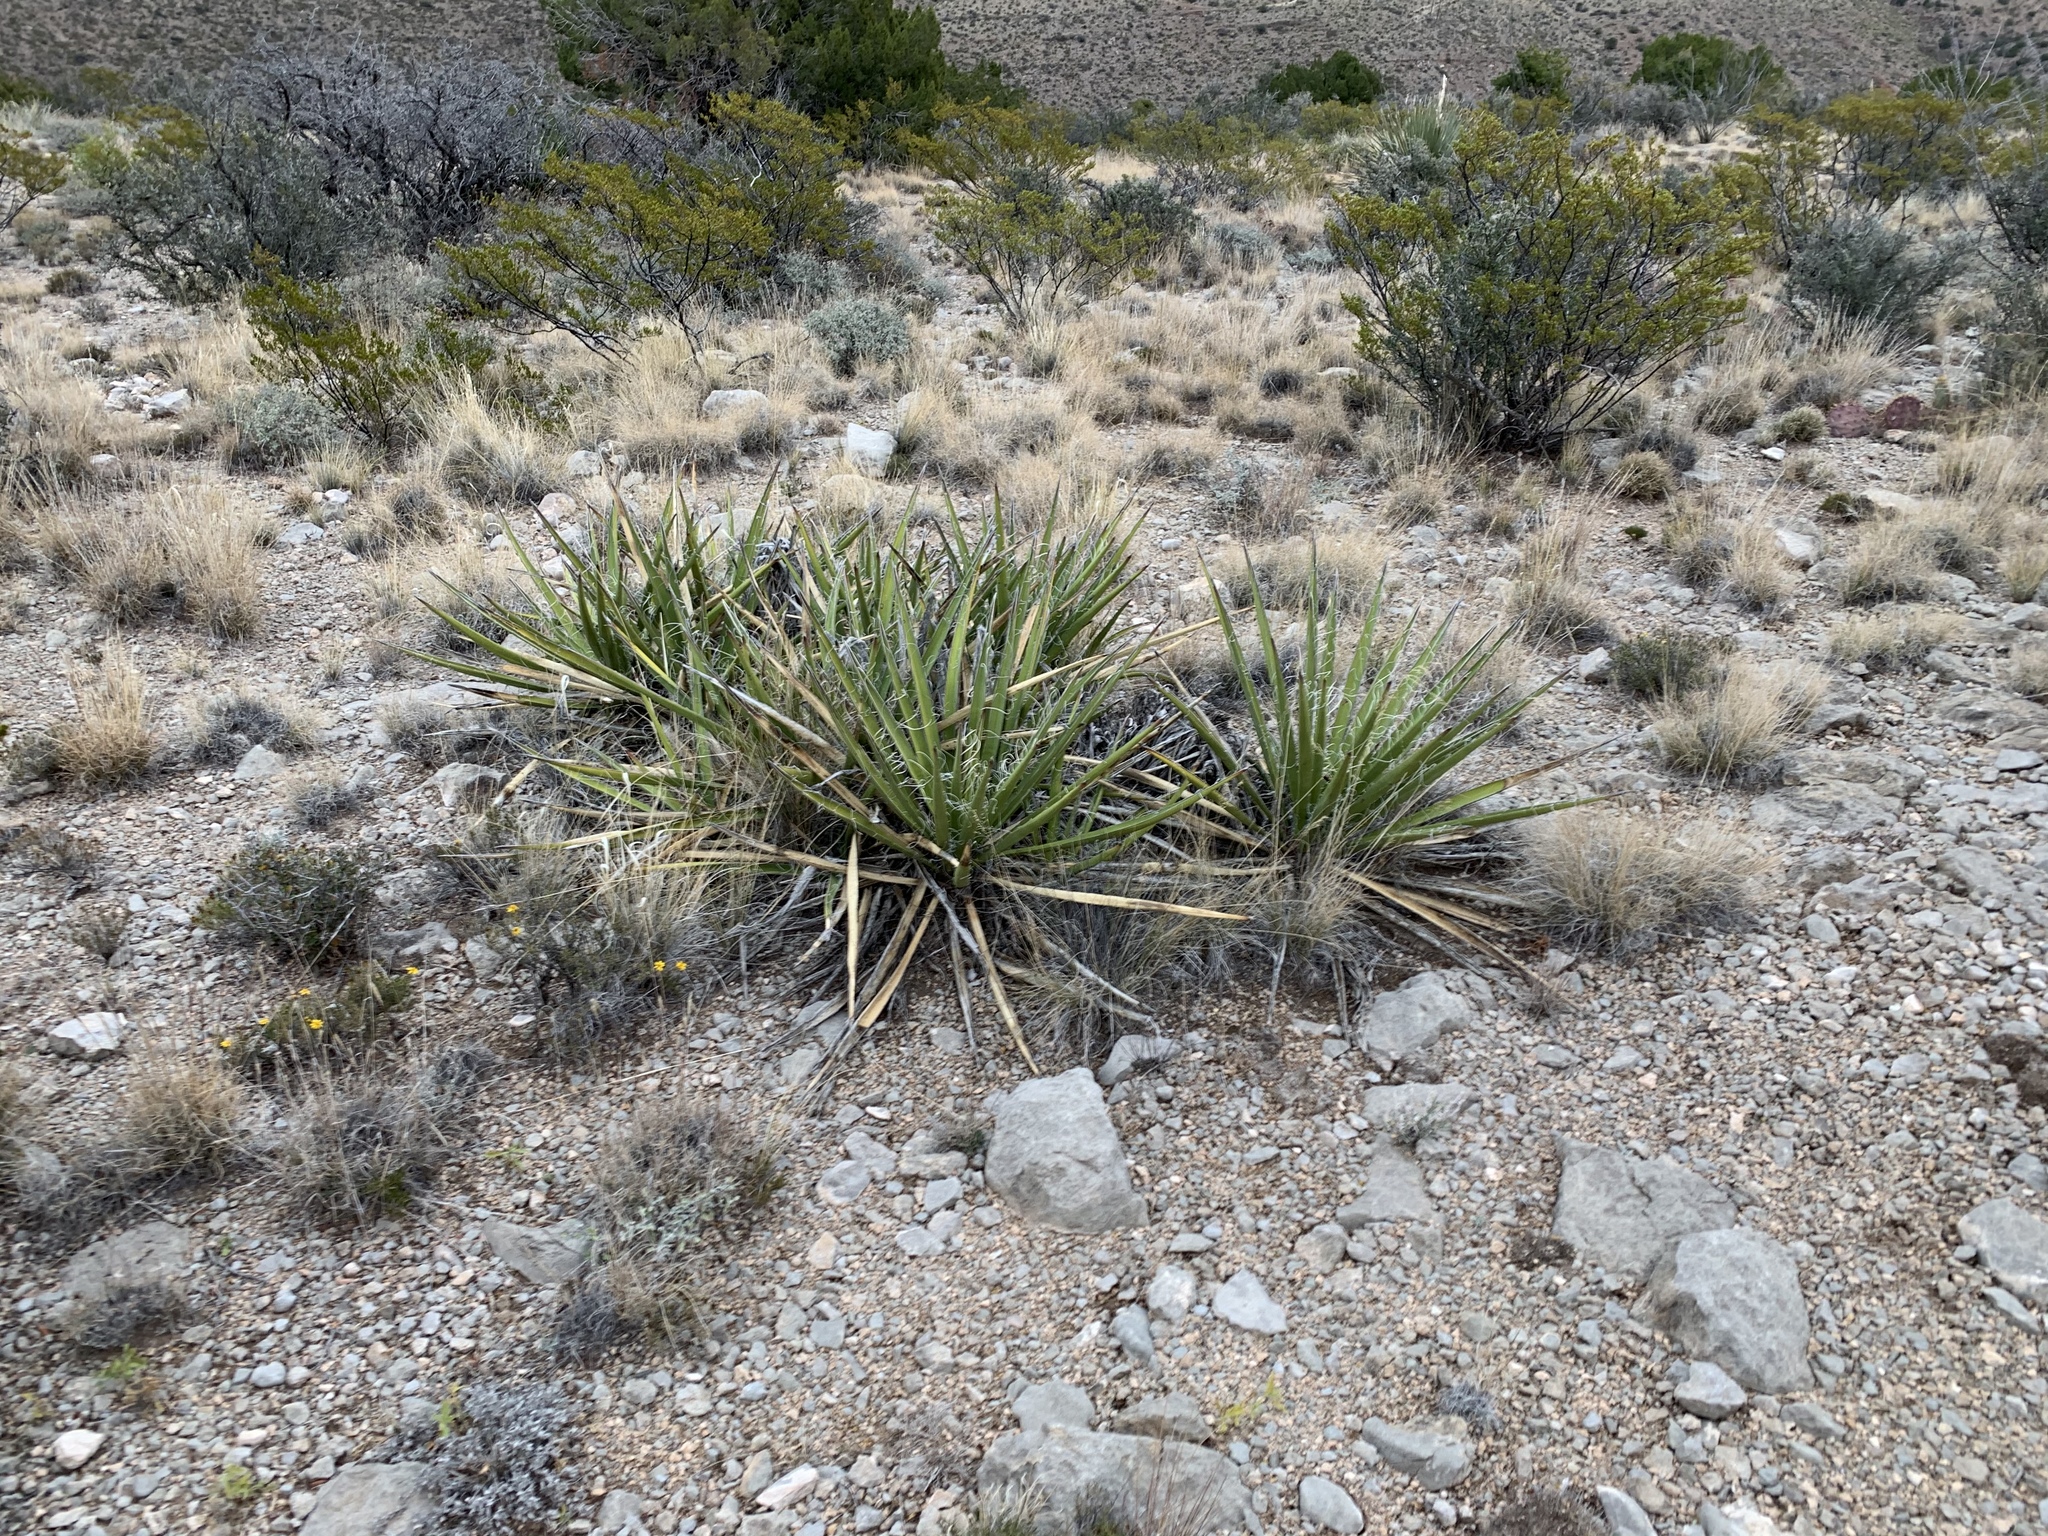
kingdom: Plantae
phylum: Tracheophyta
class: Liliopsida
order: Asparagales
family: Asparagaceae
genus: Yucca
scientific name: Yucca baccata
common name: Banana yucca
